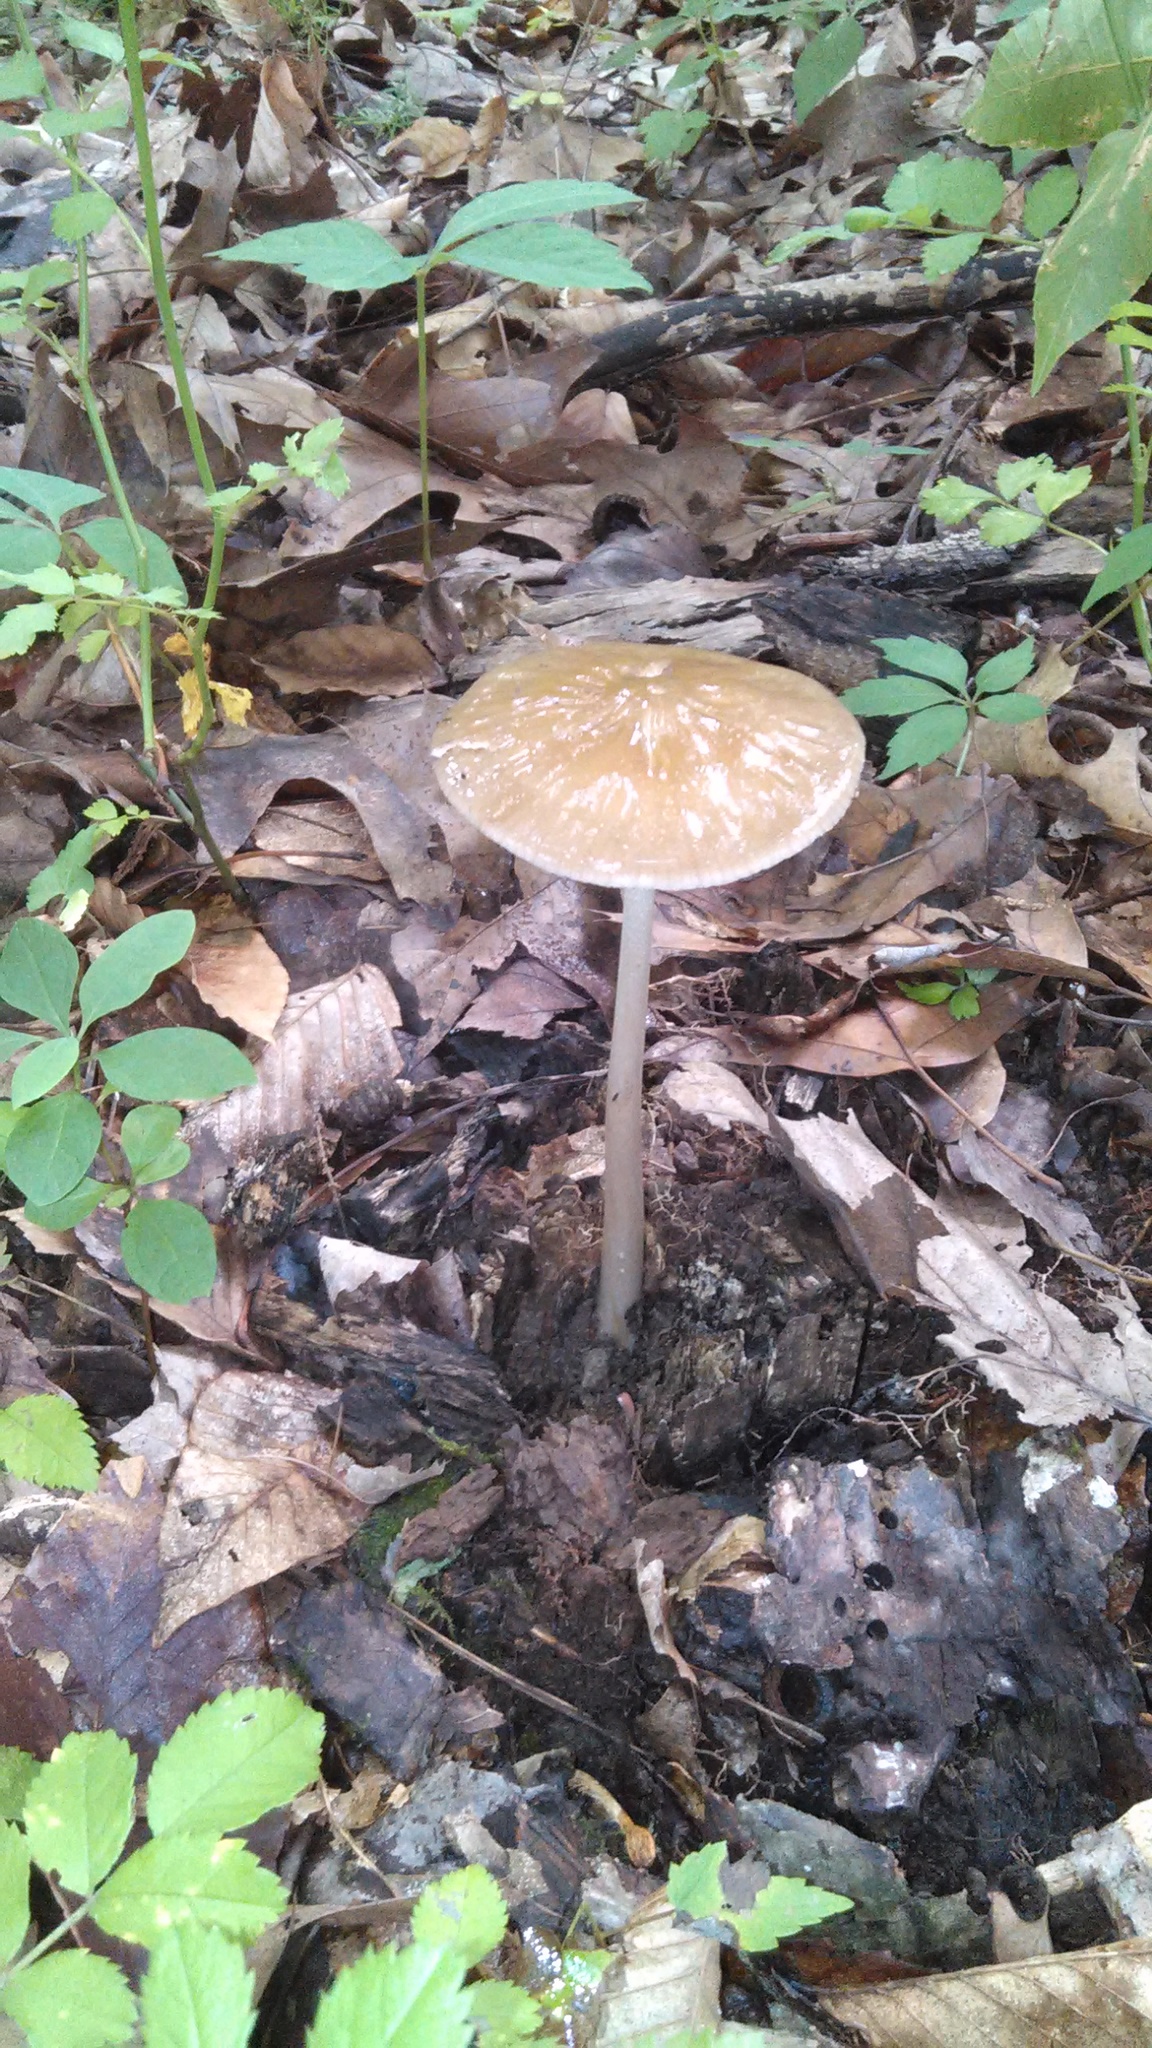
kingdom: Fungi
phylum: Basidiomycota
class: Agaricomycetes
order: Agaricales
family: Physalacriaceae
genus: Hymenopellis
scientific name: Hymenopellis radicata
